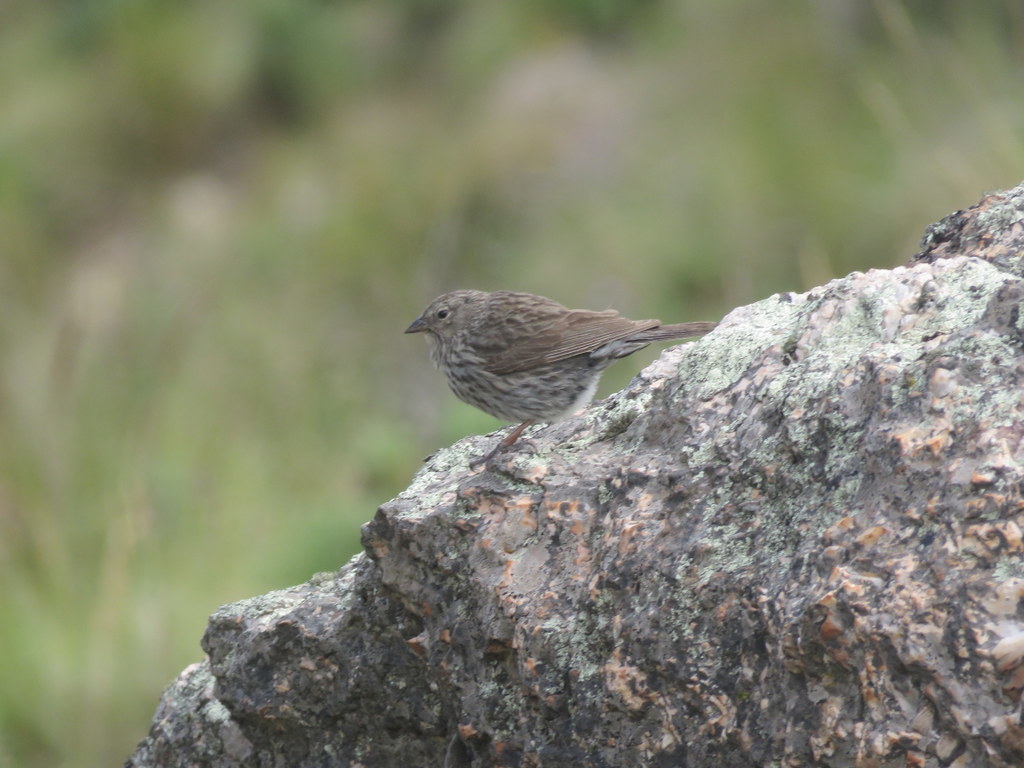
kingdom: Animalia
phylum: Chordata
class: Aves
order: Passeriformes
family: Thraupidae
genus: Geospizopsis
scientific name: Geospizopsis unicolor
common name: Plumbeous sierra-finch
